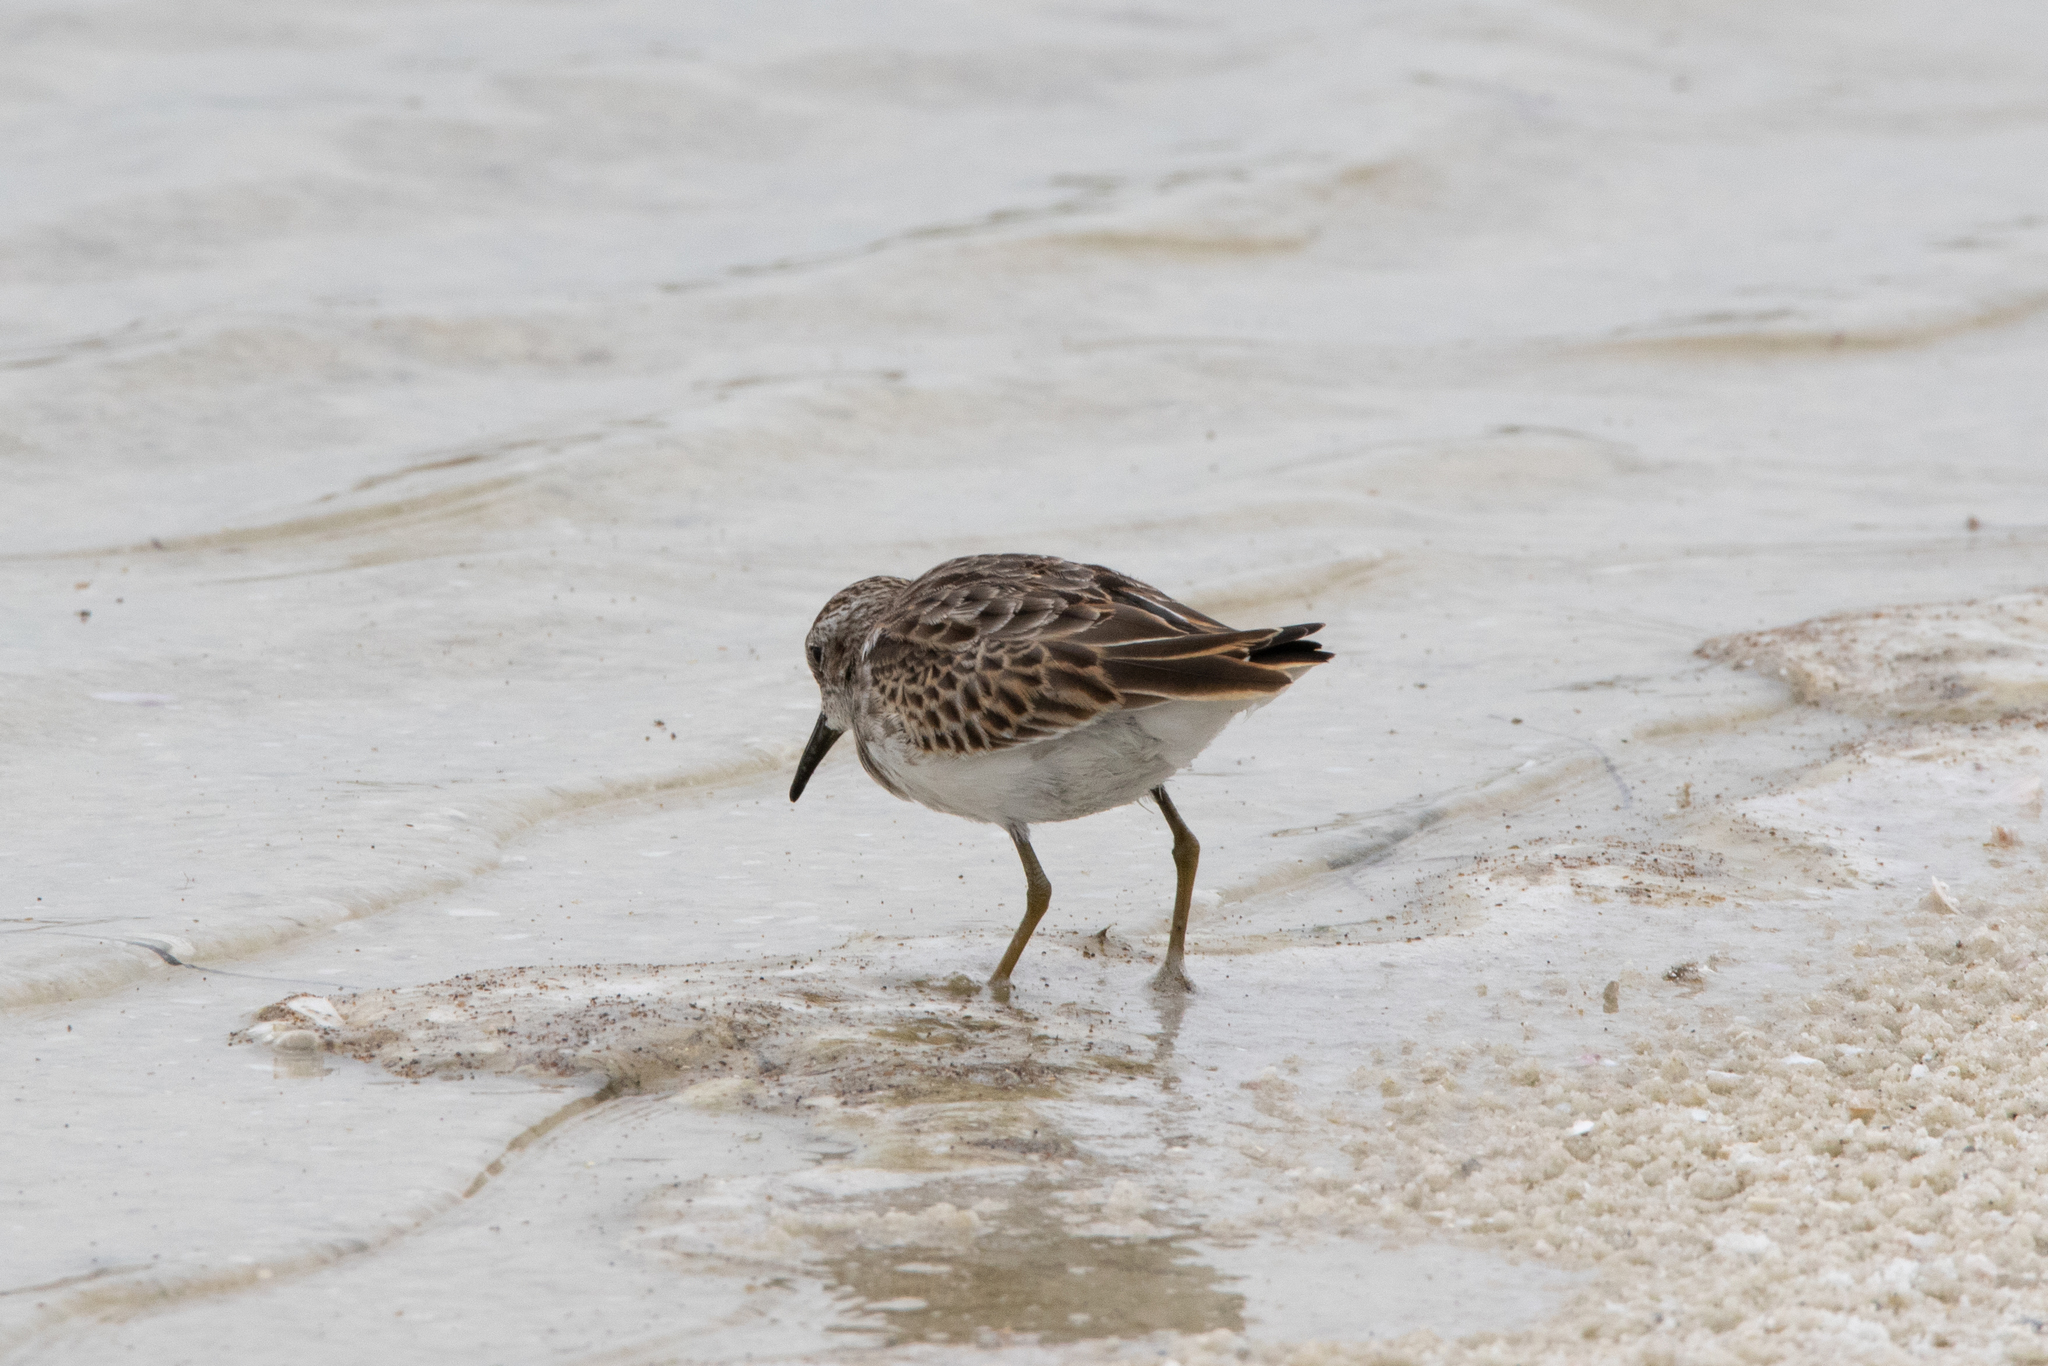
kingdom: Animalia
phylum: Chordata
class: Aves
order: Charadriiformes
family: Scolopacidae
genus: Calidris
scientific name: Calidris minutilla
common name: Least sandpiper
